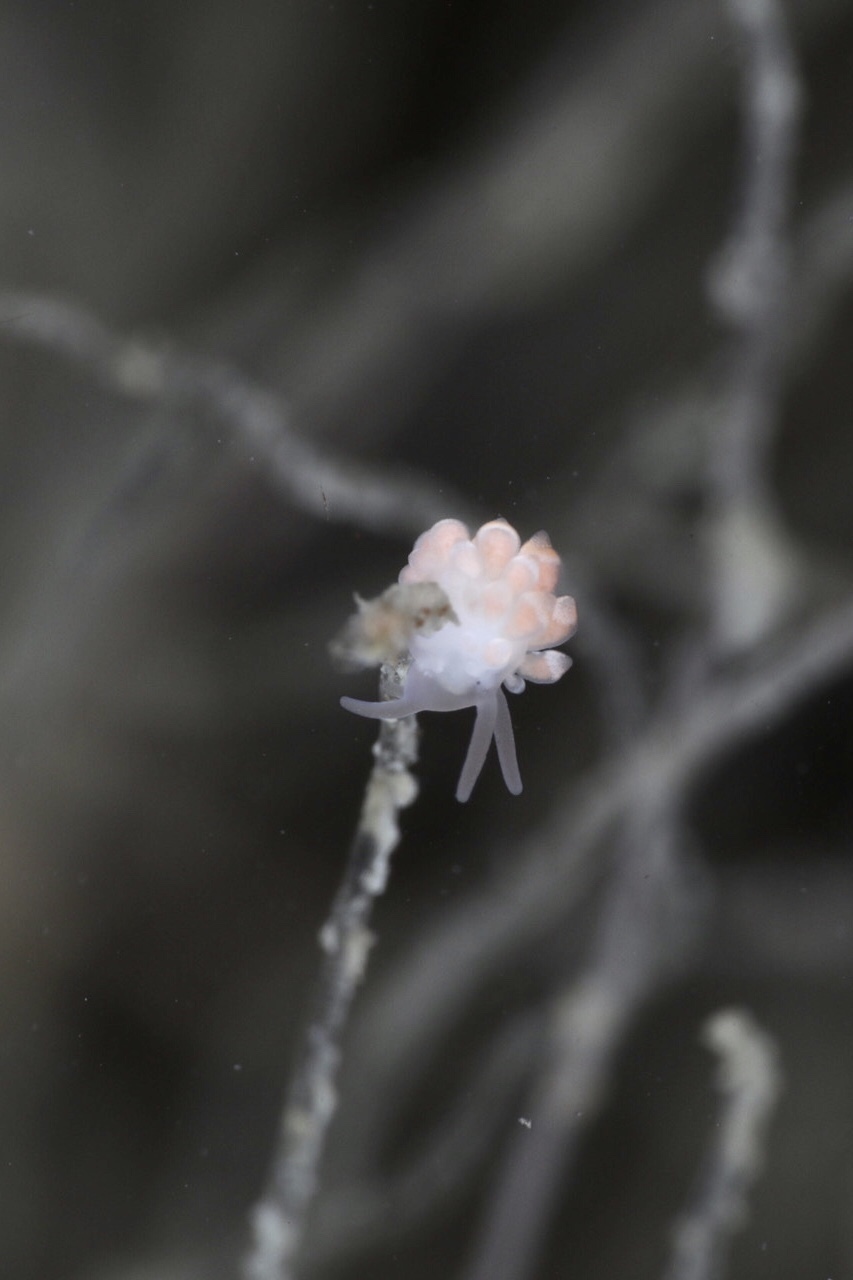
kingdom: Animalia
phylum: Mollusca
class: Gastropoda
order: Nudibranchia
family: Trinchesiidae
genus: Catriona
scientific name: Catriona aurantia
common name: Corange-tip cuthona
